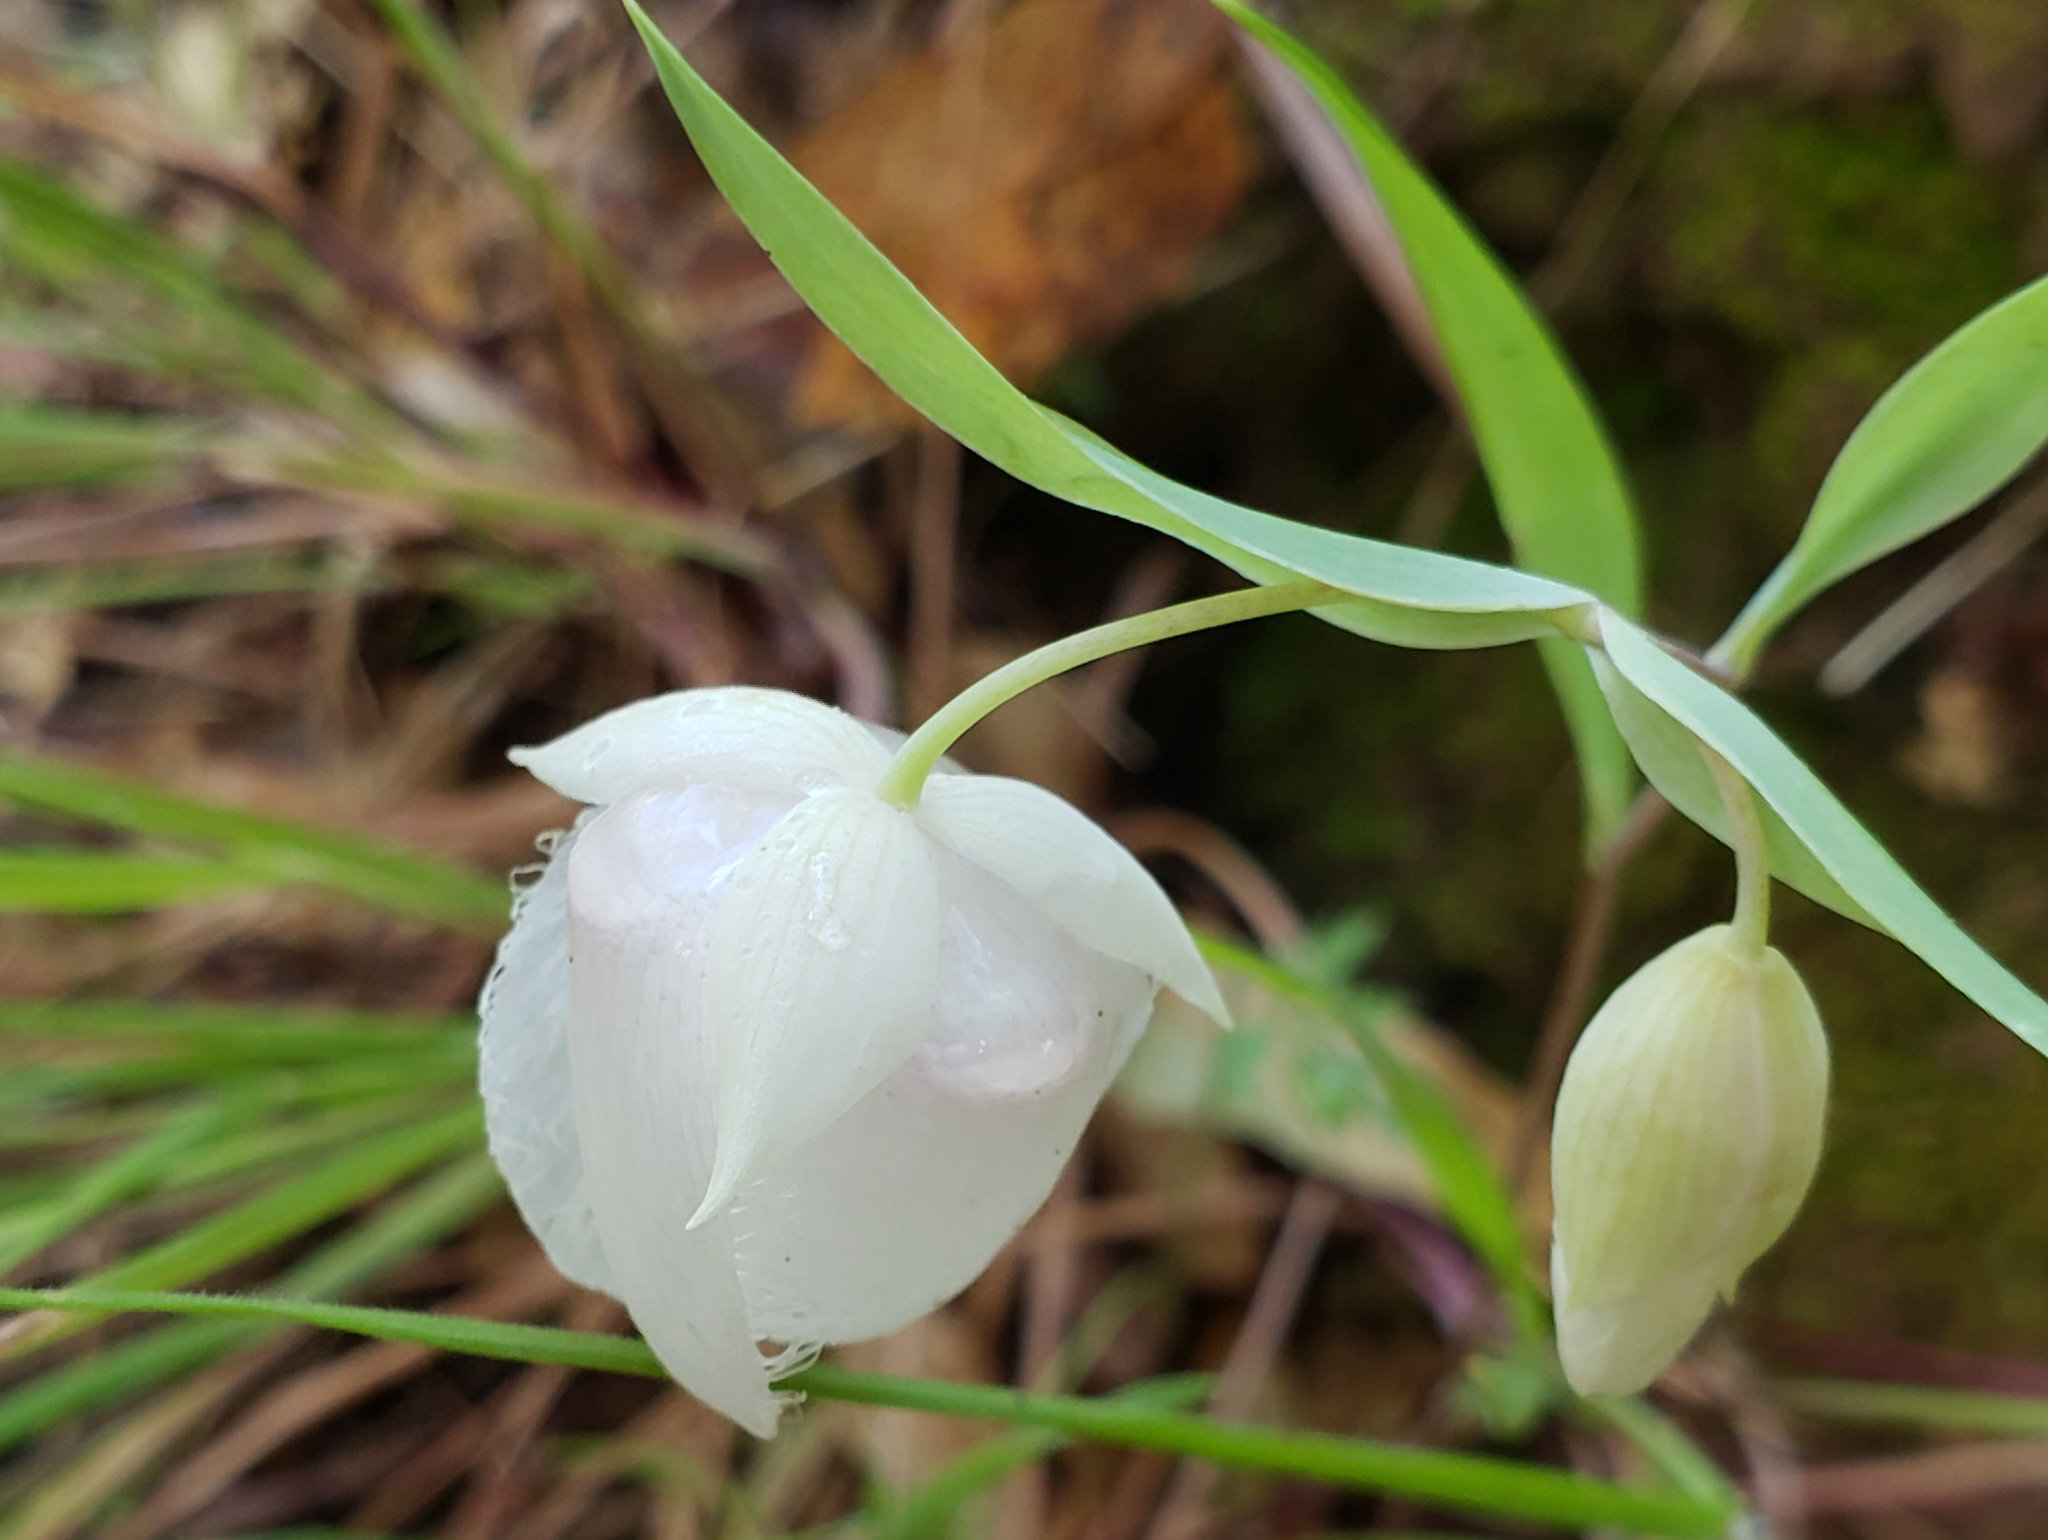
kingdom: Plantae
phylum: Tracheophyta
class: Liliopsida
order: Liliales
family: Liliaceae
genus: Calochortus
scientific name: Calochortus albus
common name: Fairy-lantern
